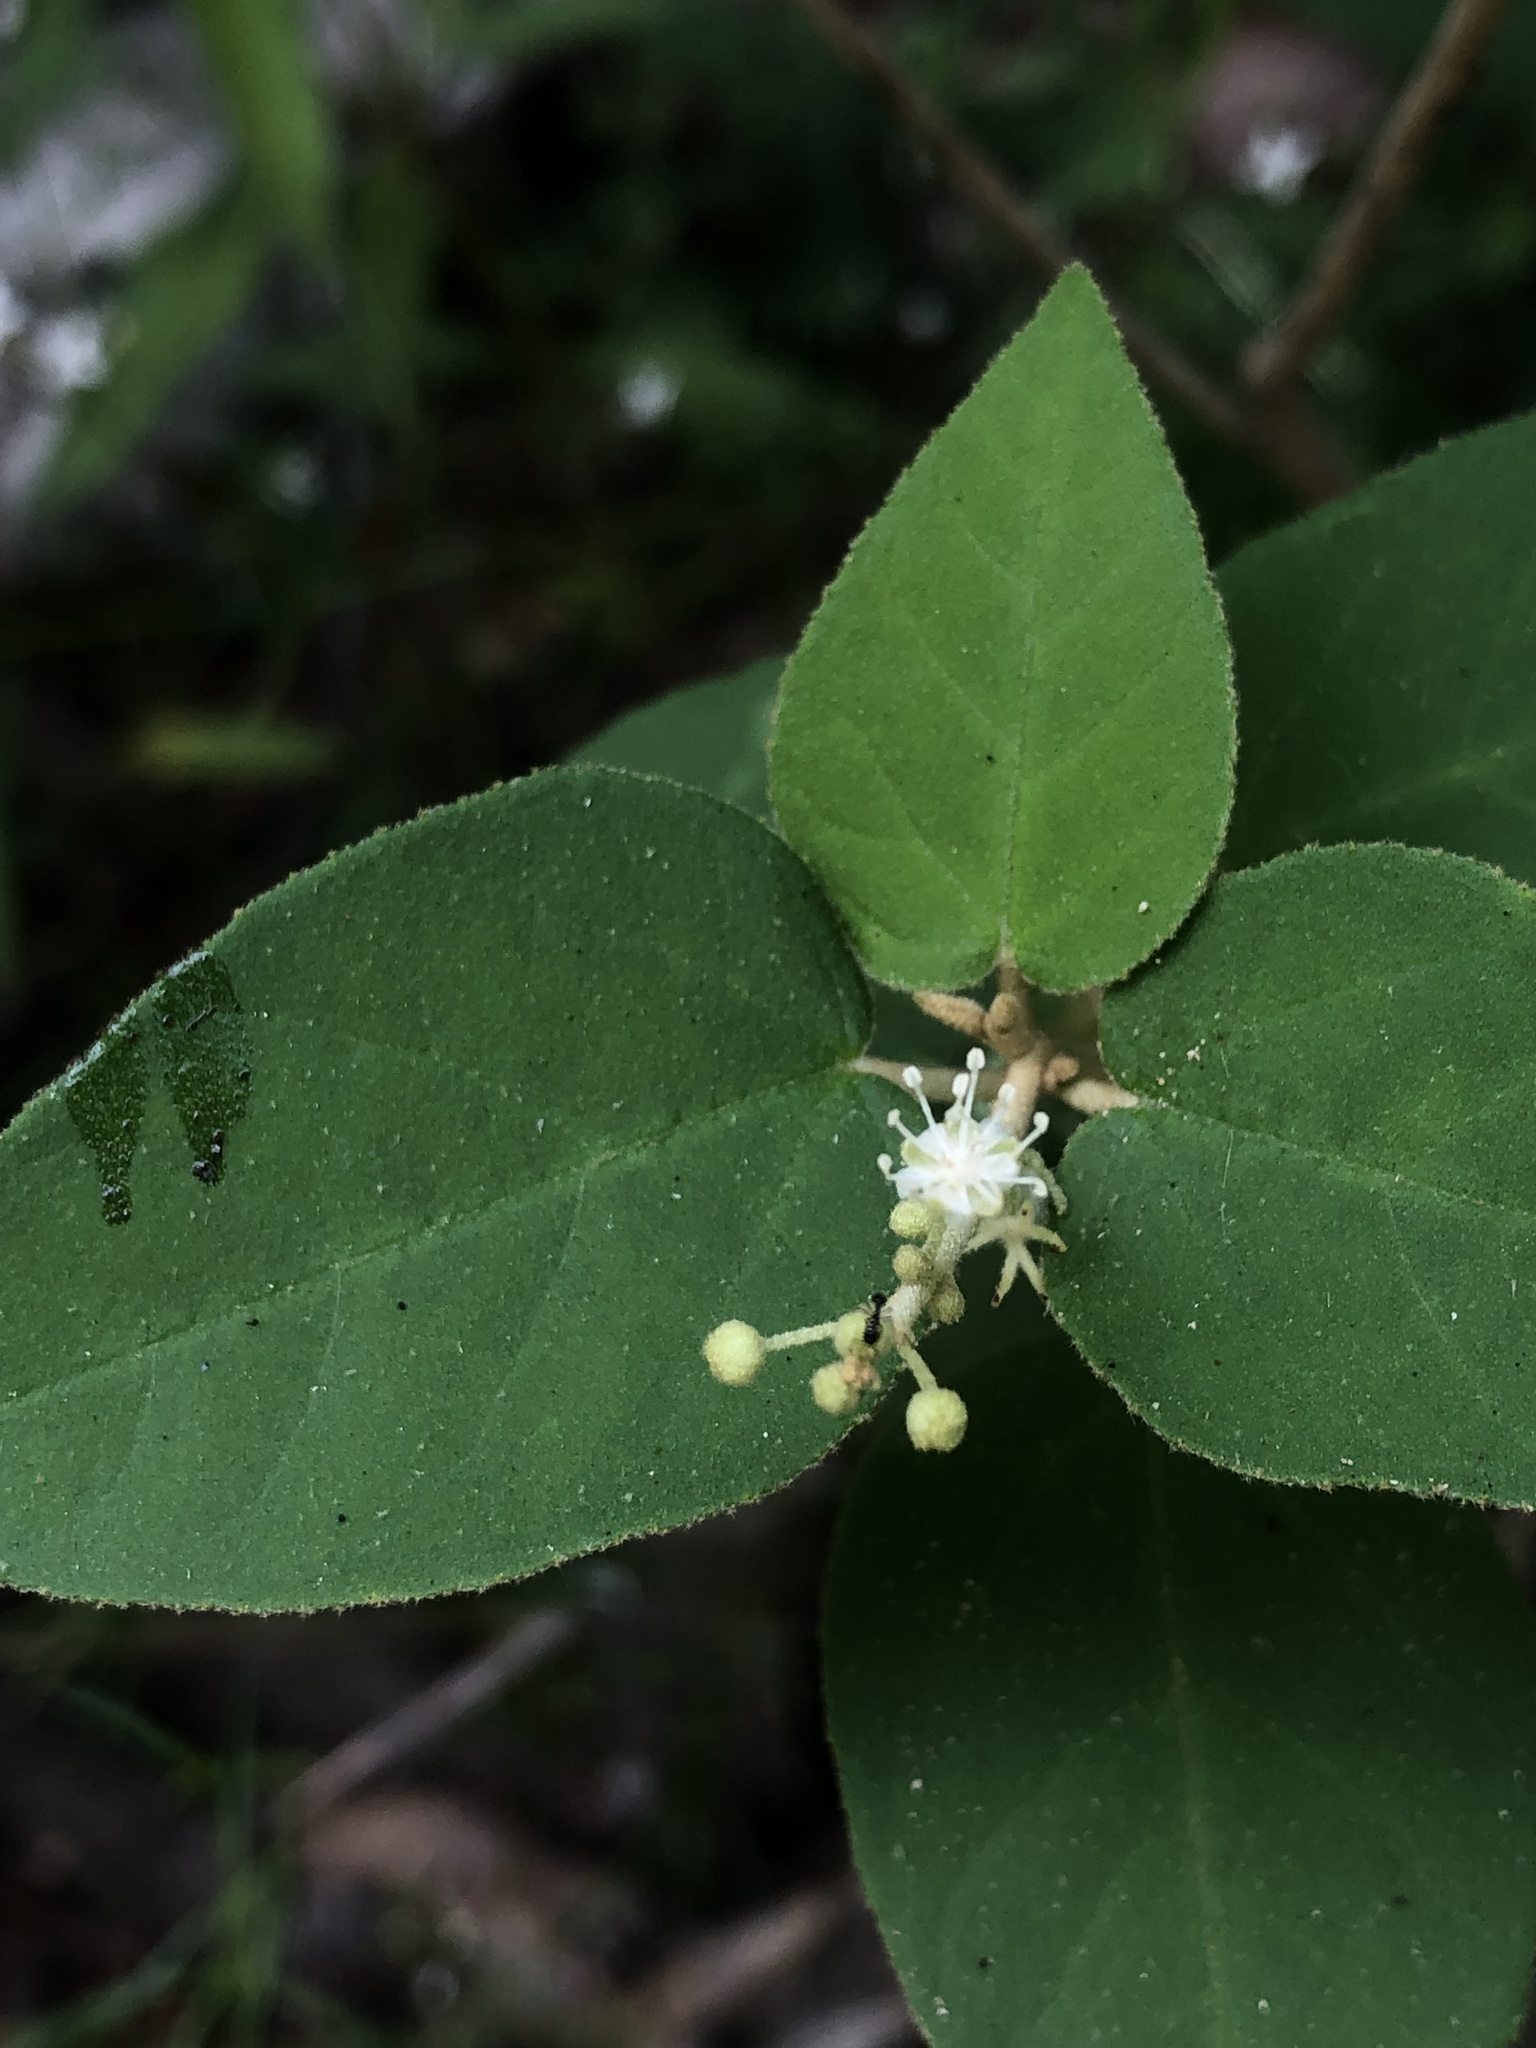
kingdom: Plantae
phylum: Tracheophyta
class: Magnoliopsida
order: Malpighiales
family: Euphorbiaceae
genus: Croton
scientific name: Croton fruticulosus
